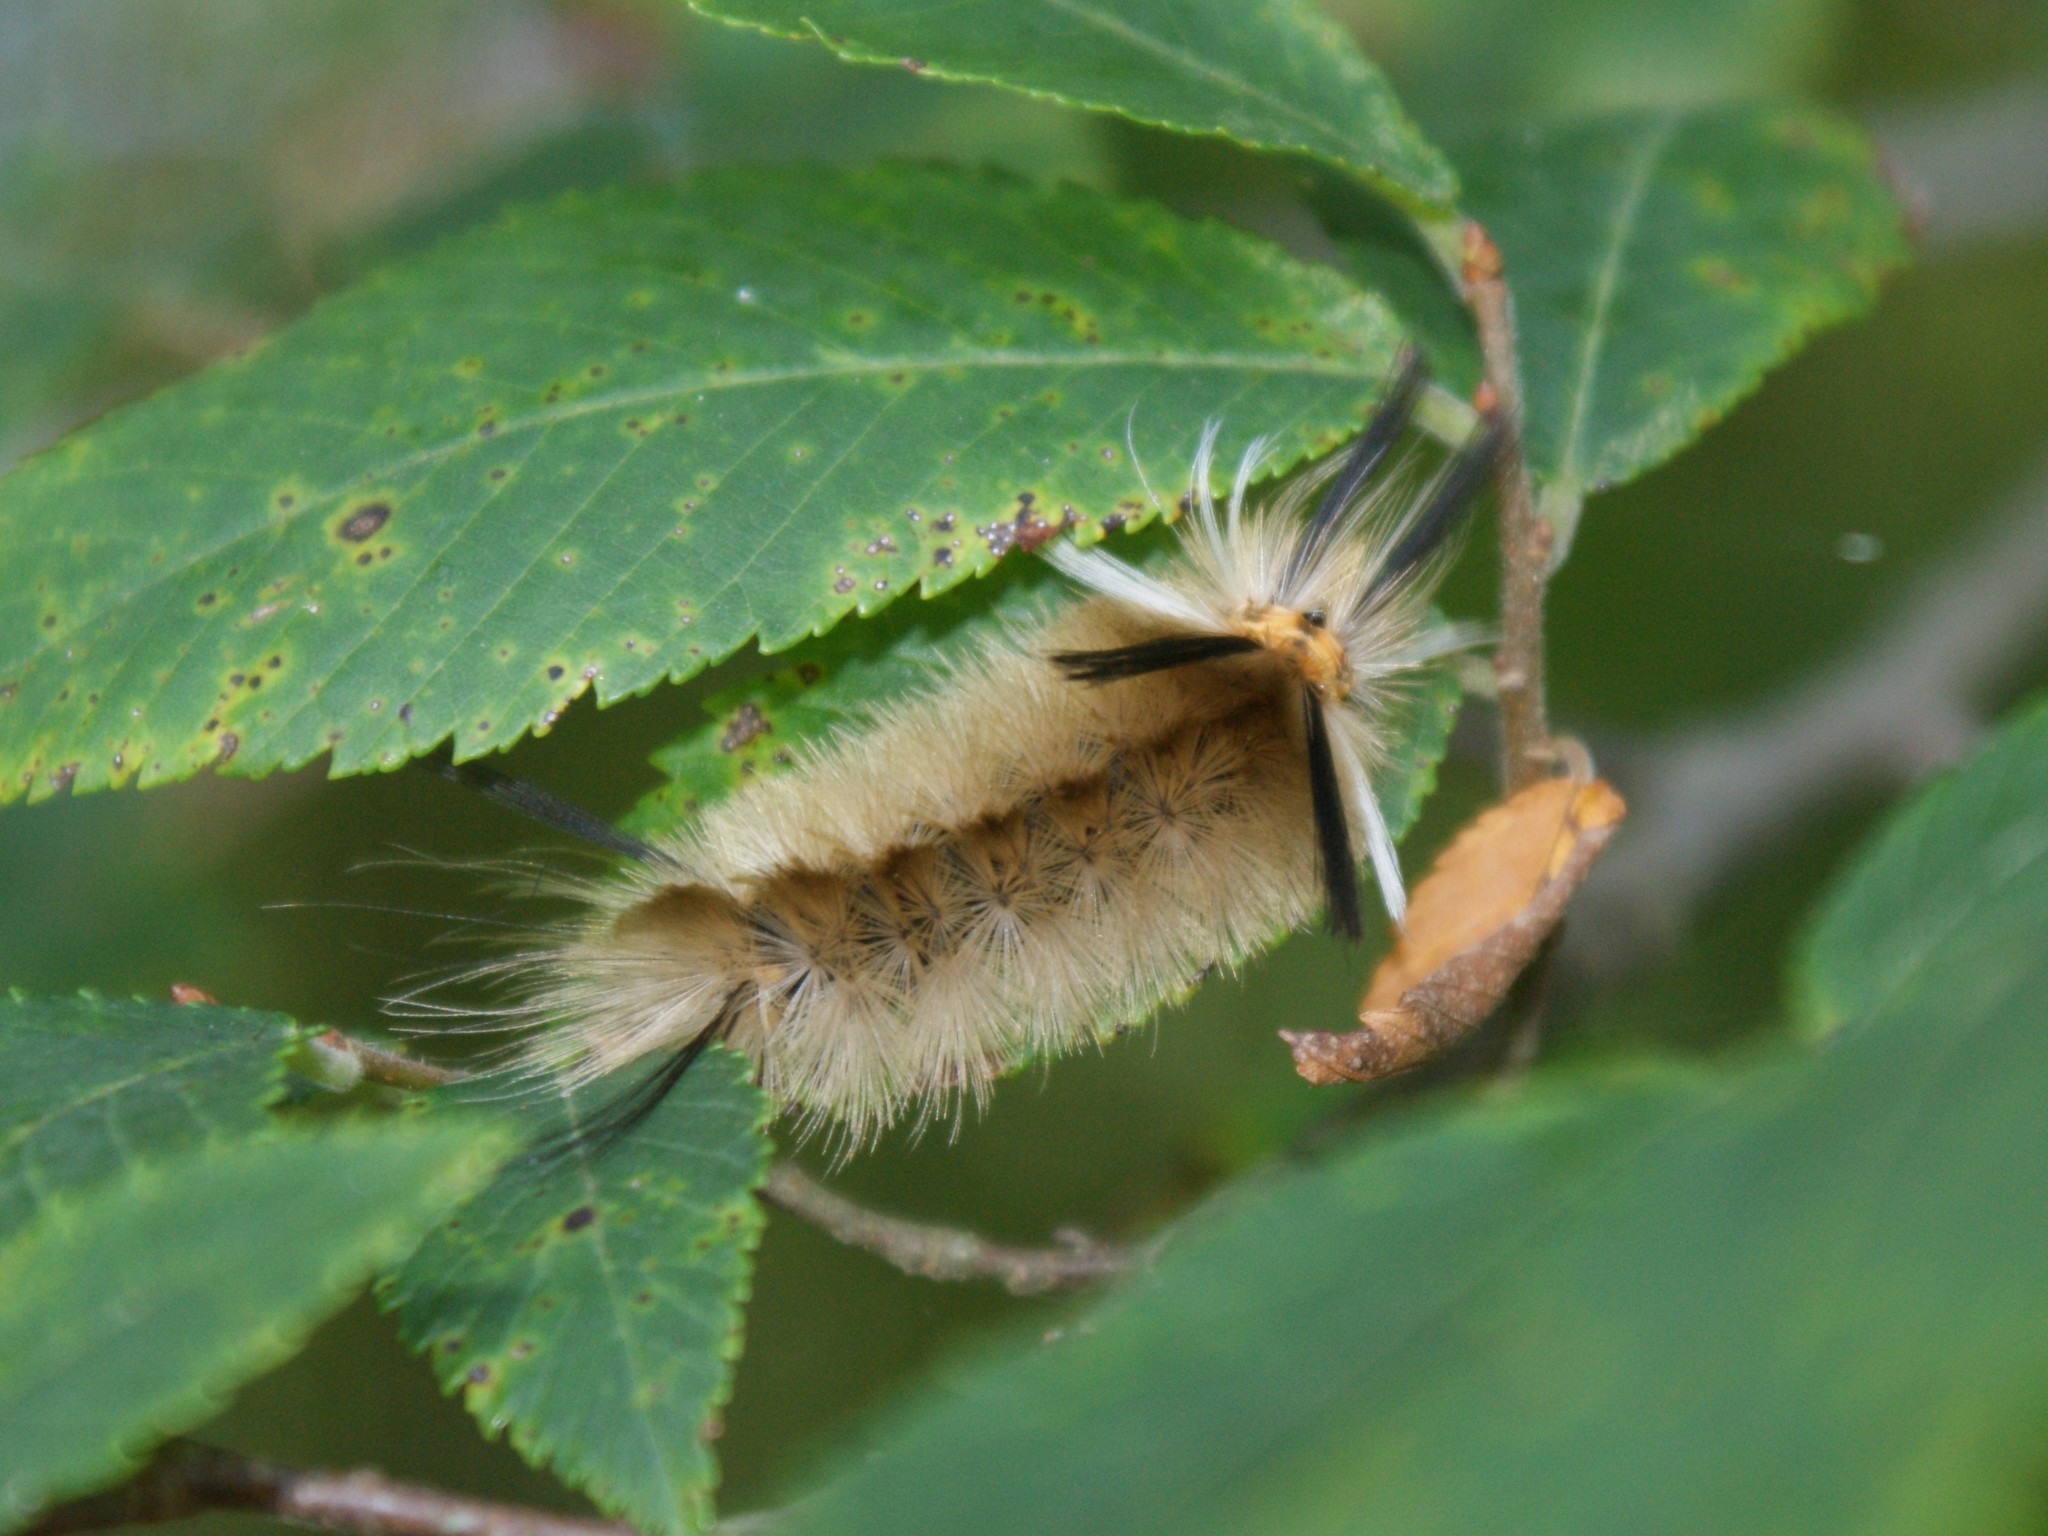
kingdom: Animalia
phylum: Arthropoda
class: Insecta
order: Lepidoptera
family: Erebidae
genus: Halysidota
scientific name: Halysidota tessellaris
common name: Banded tussock moth
